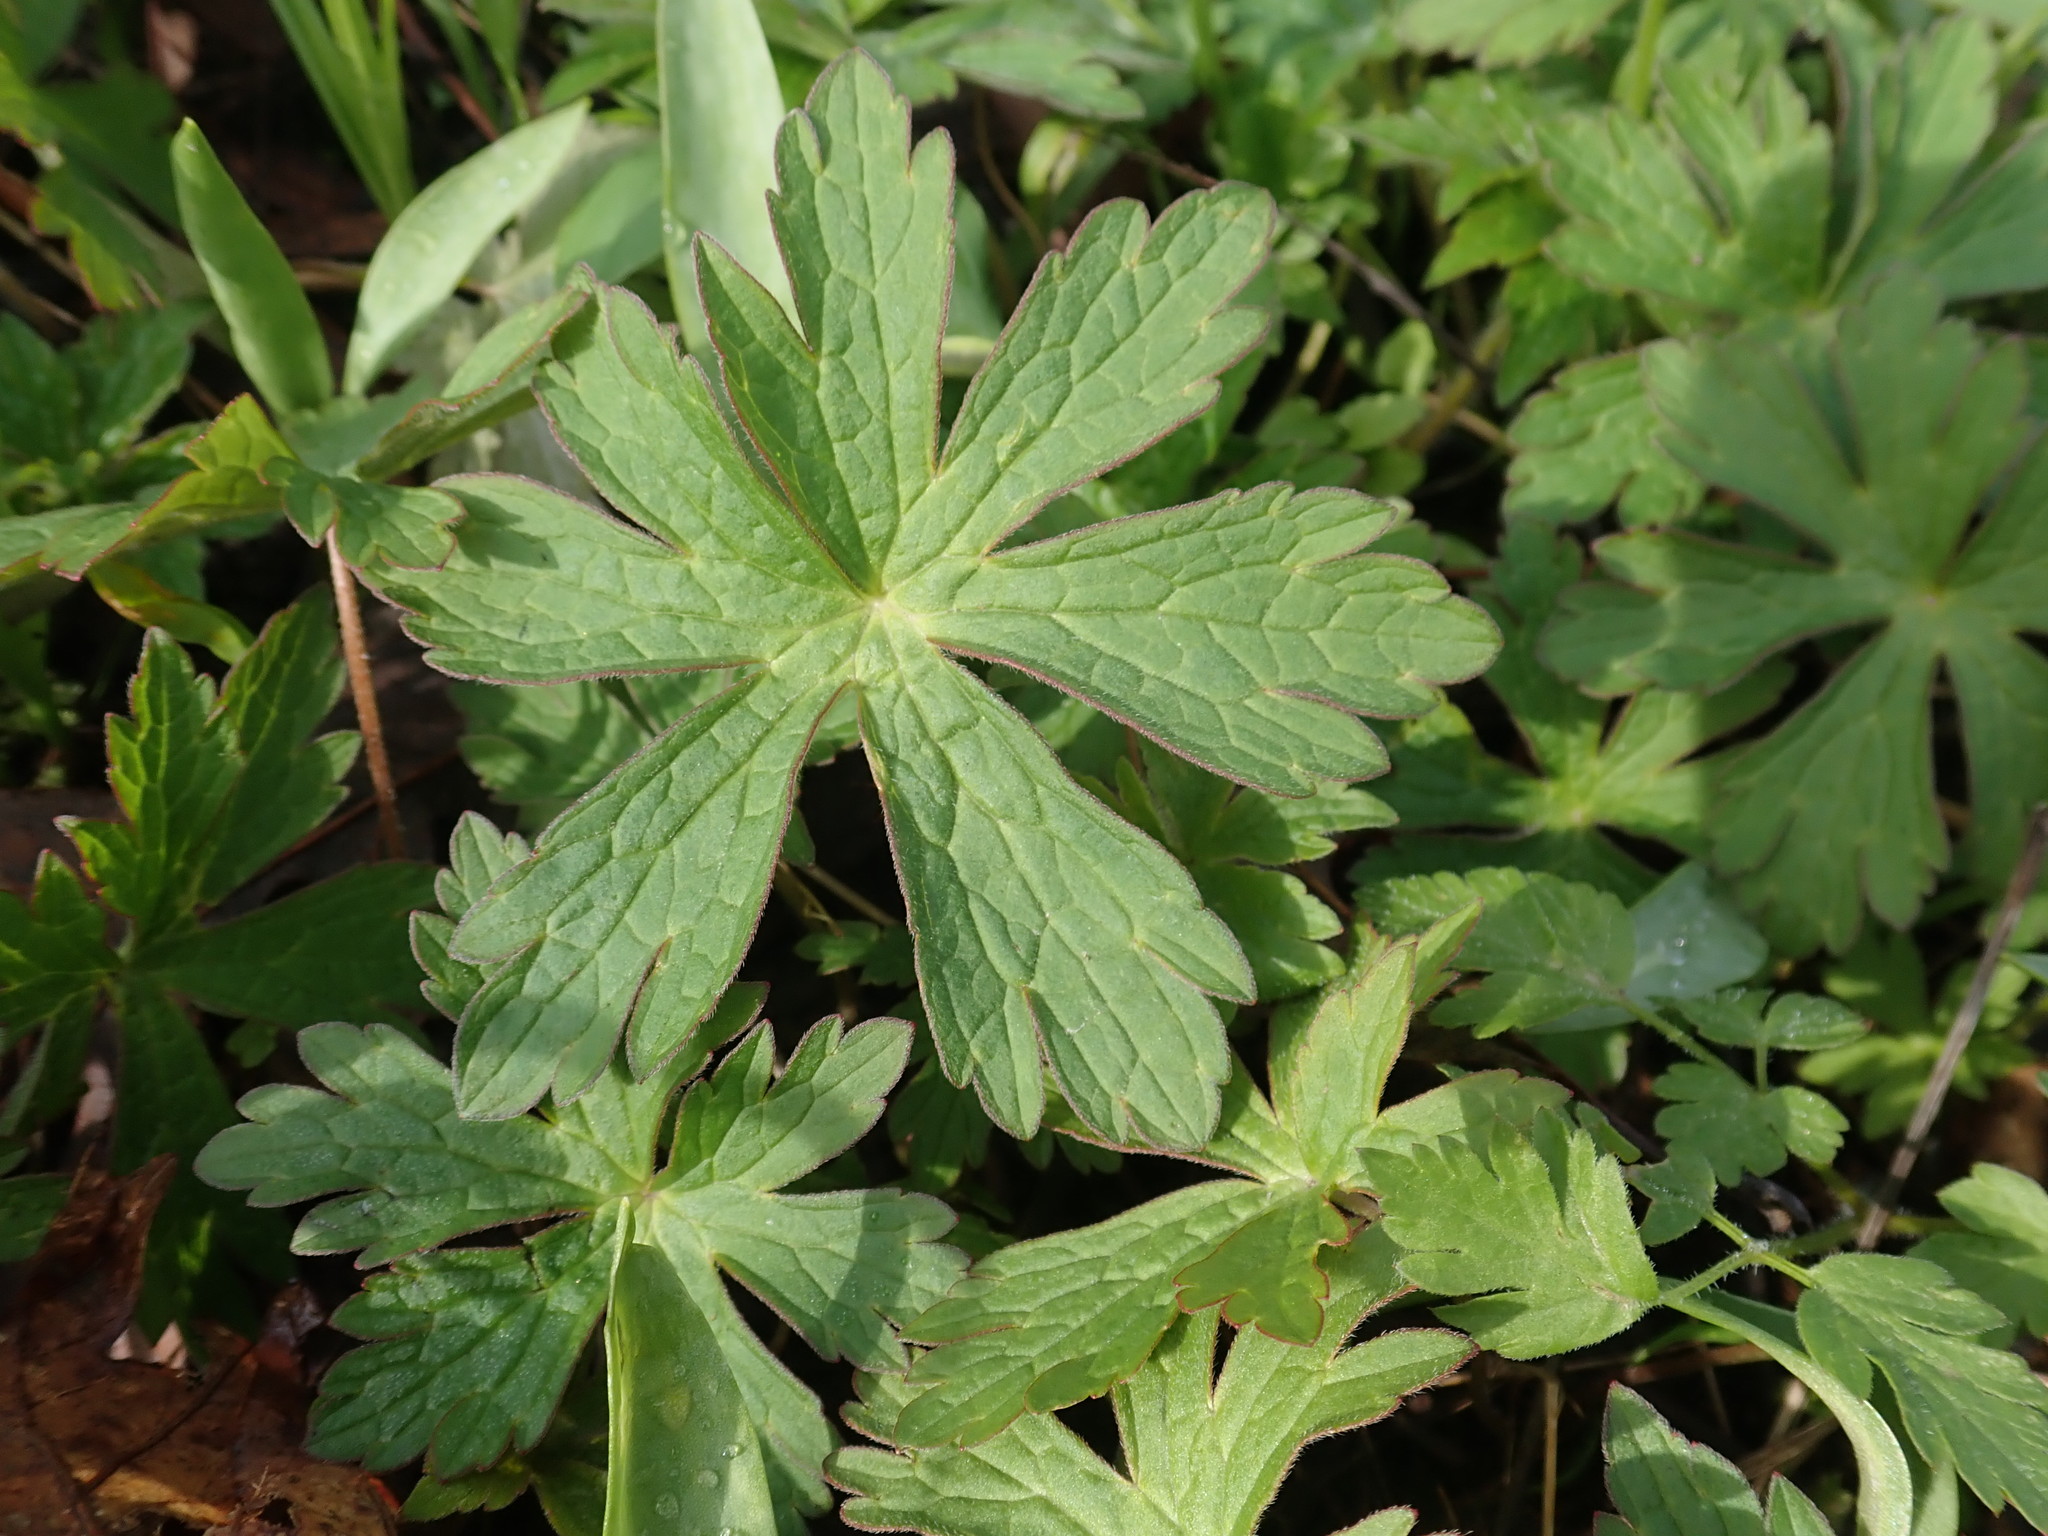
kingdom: Plantae
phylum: Tracheophyta
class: Magnoliopsida
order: Geraniales
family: Geraniaceae
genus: Geranium
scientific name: Geranium maculatum
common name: Spotted geranium
